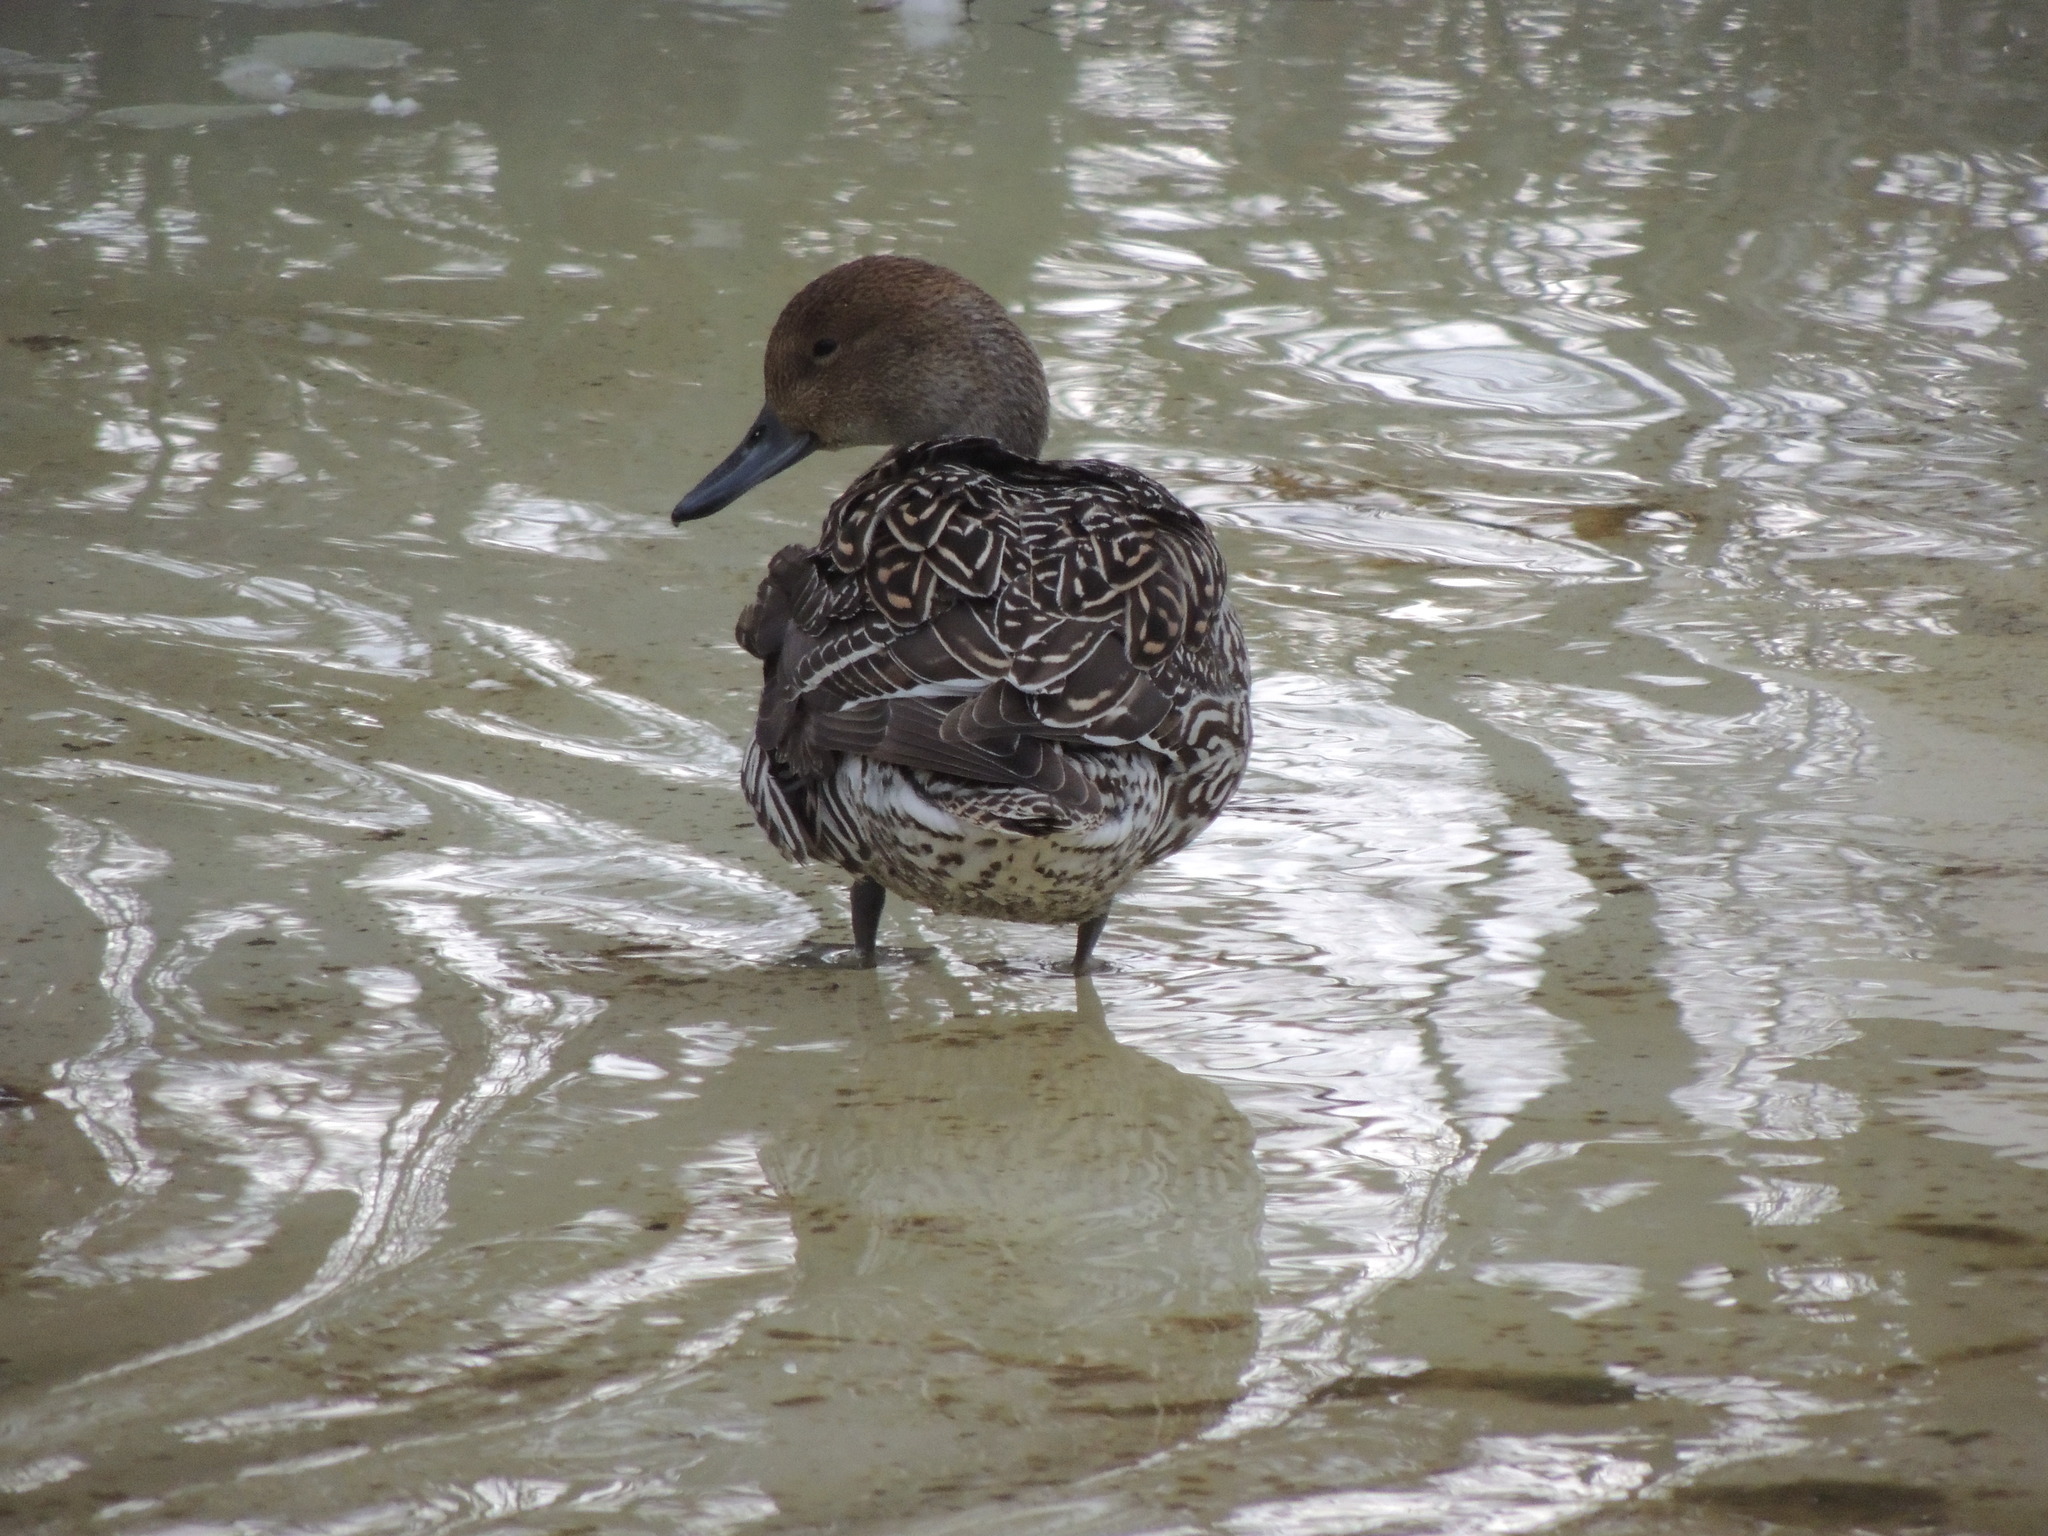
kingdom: Animalia
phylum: Chordata
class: Aves
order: Anseriformes
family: Anatidae
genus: Anas
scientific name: Anas acuta
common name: Northern pintail
